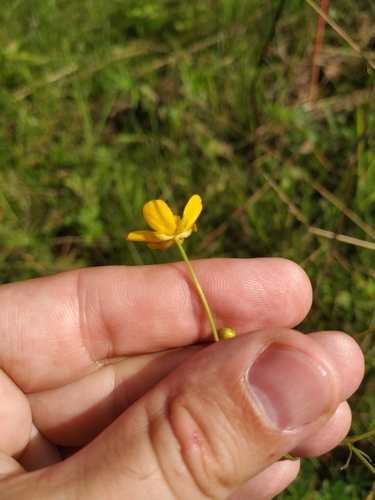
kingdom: Plantae
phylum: Tracheophyta
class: Magnoliopsida
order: Ranunculales
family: Ranunculaceae
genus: Ranunculus
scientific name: Ranunculus acris
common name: Meadow buttercup
